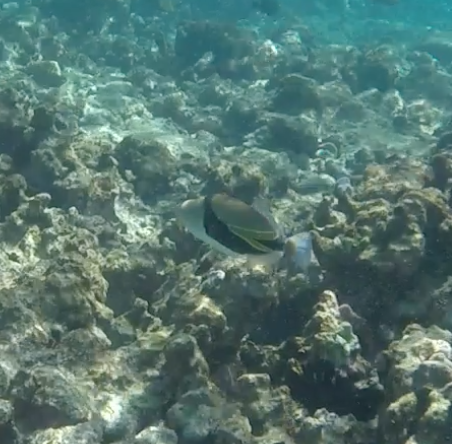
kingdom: Animalia
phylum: Chordata
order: Tetraodontiformes
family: Balistidae
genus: Rhinecanthus
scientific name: Rhinecanthus rectangulus
